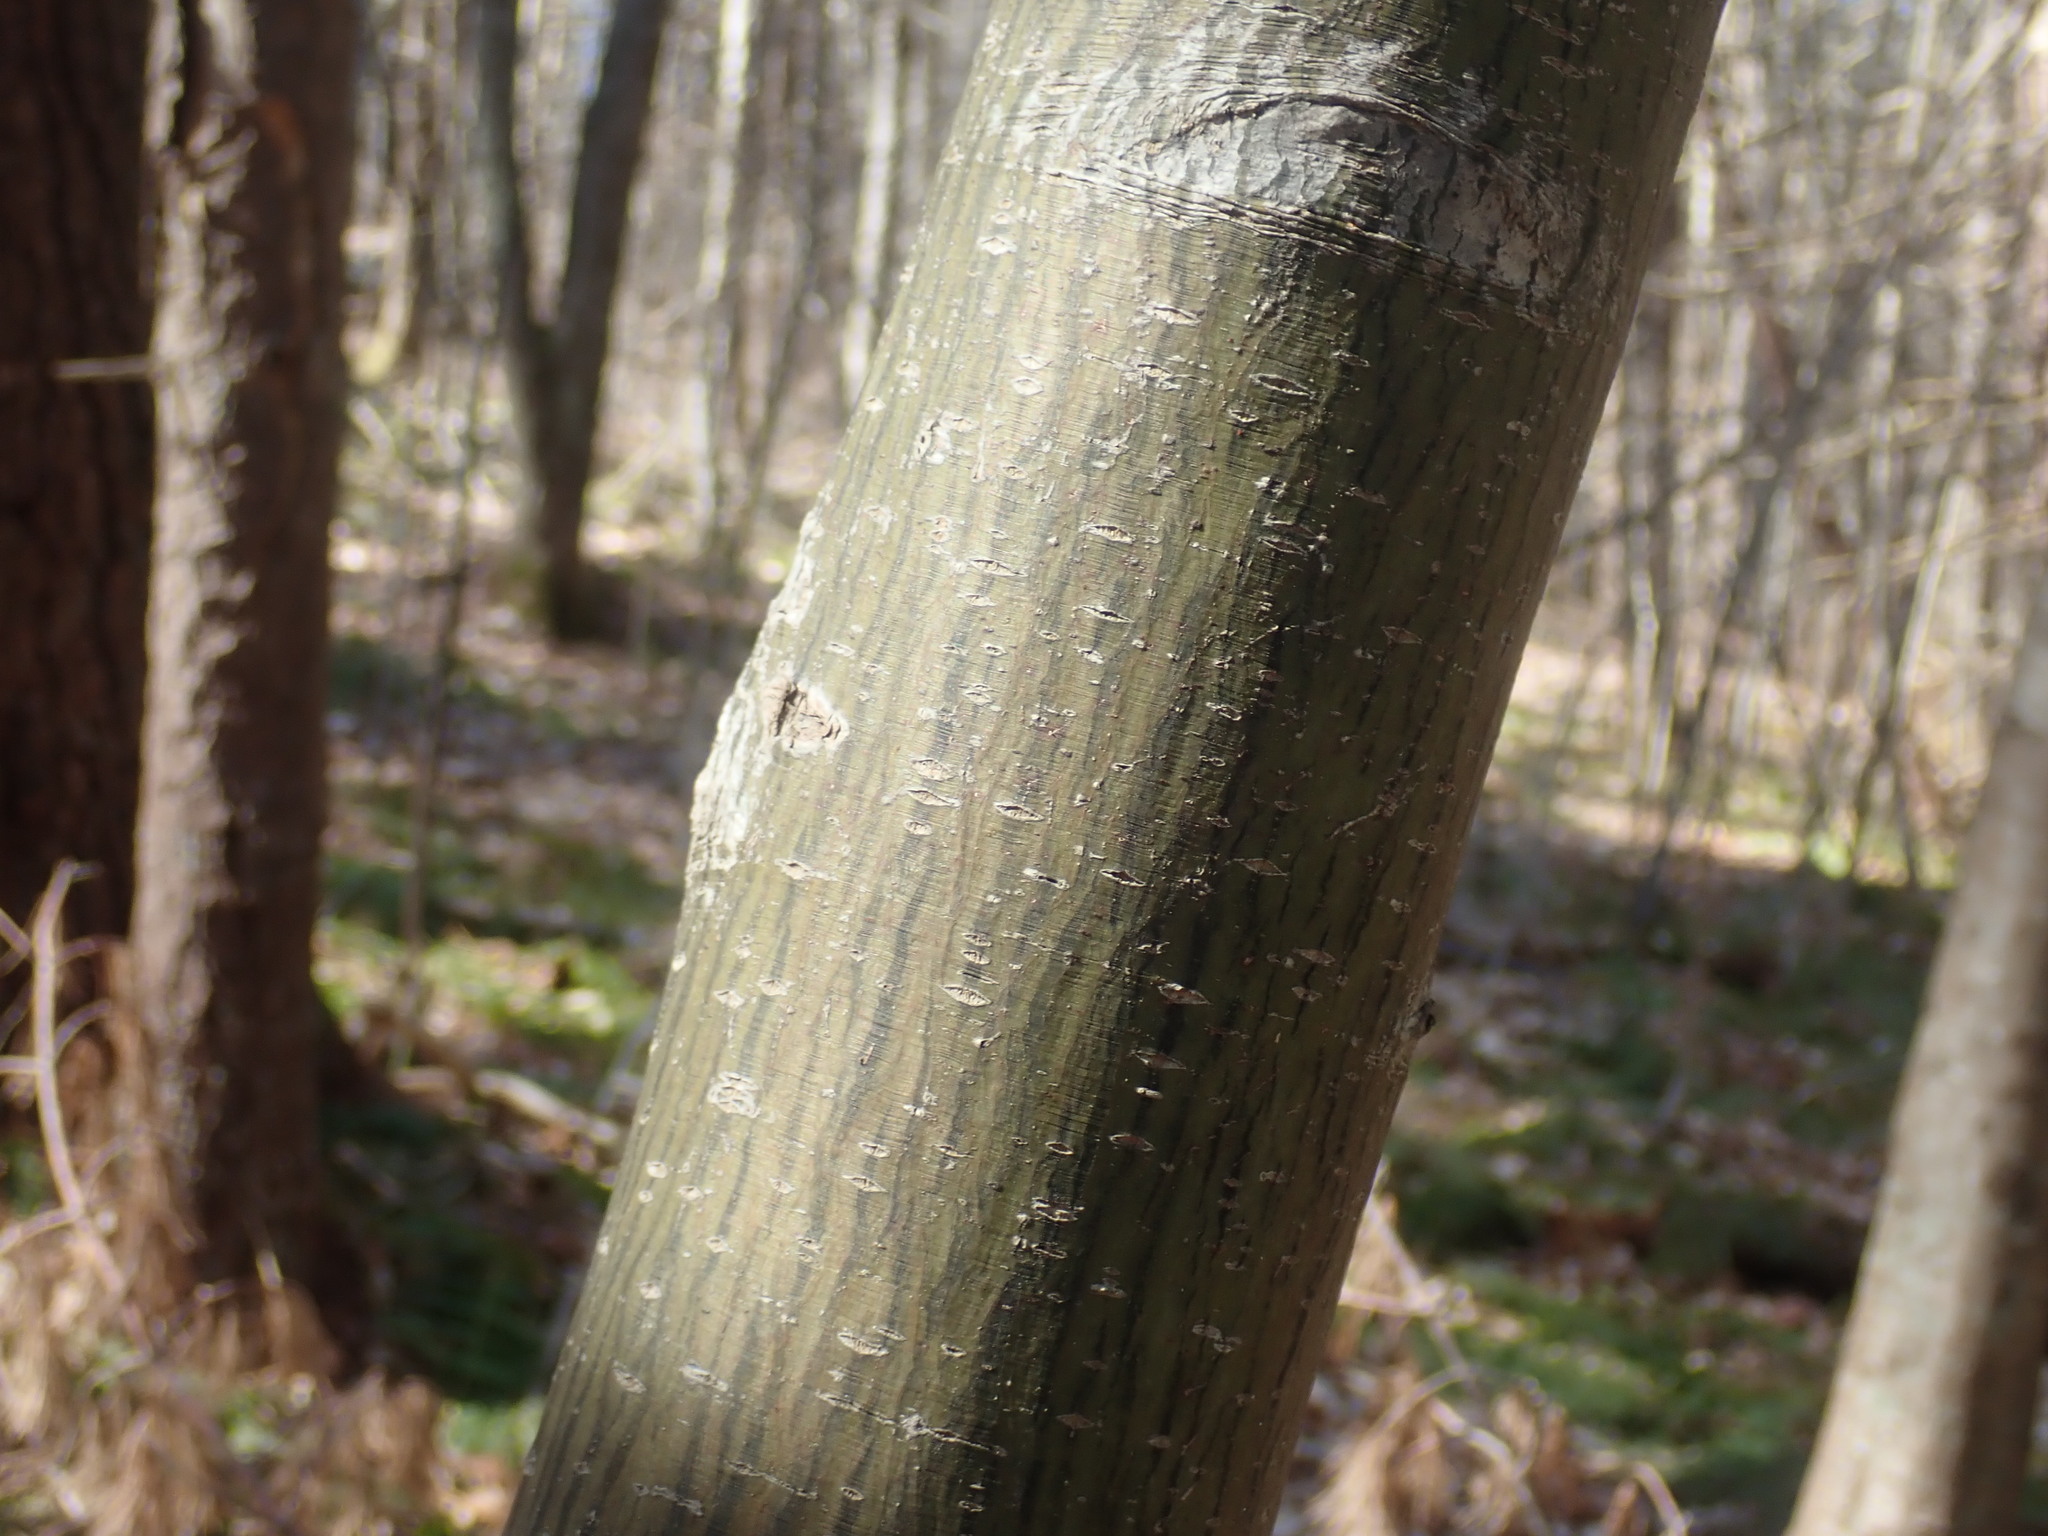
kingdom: Plantae
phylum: Tracheophyta
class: Magnoliopsida
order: Sapindales
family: Sapindaceae
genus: Acer
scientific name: Acer pensylvanicum
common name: Moosewood
